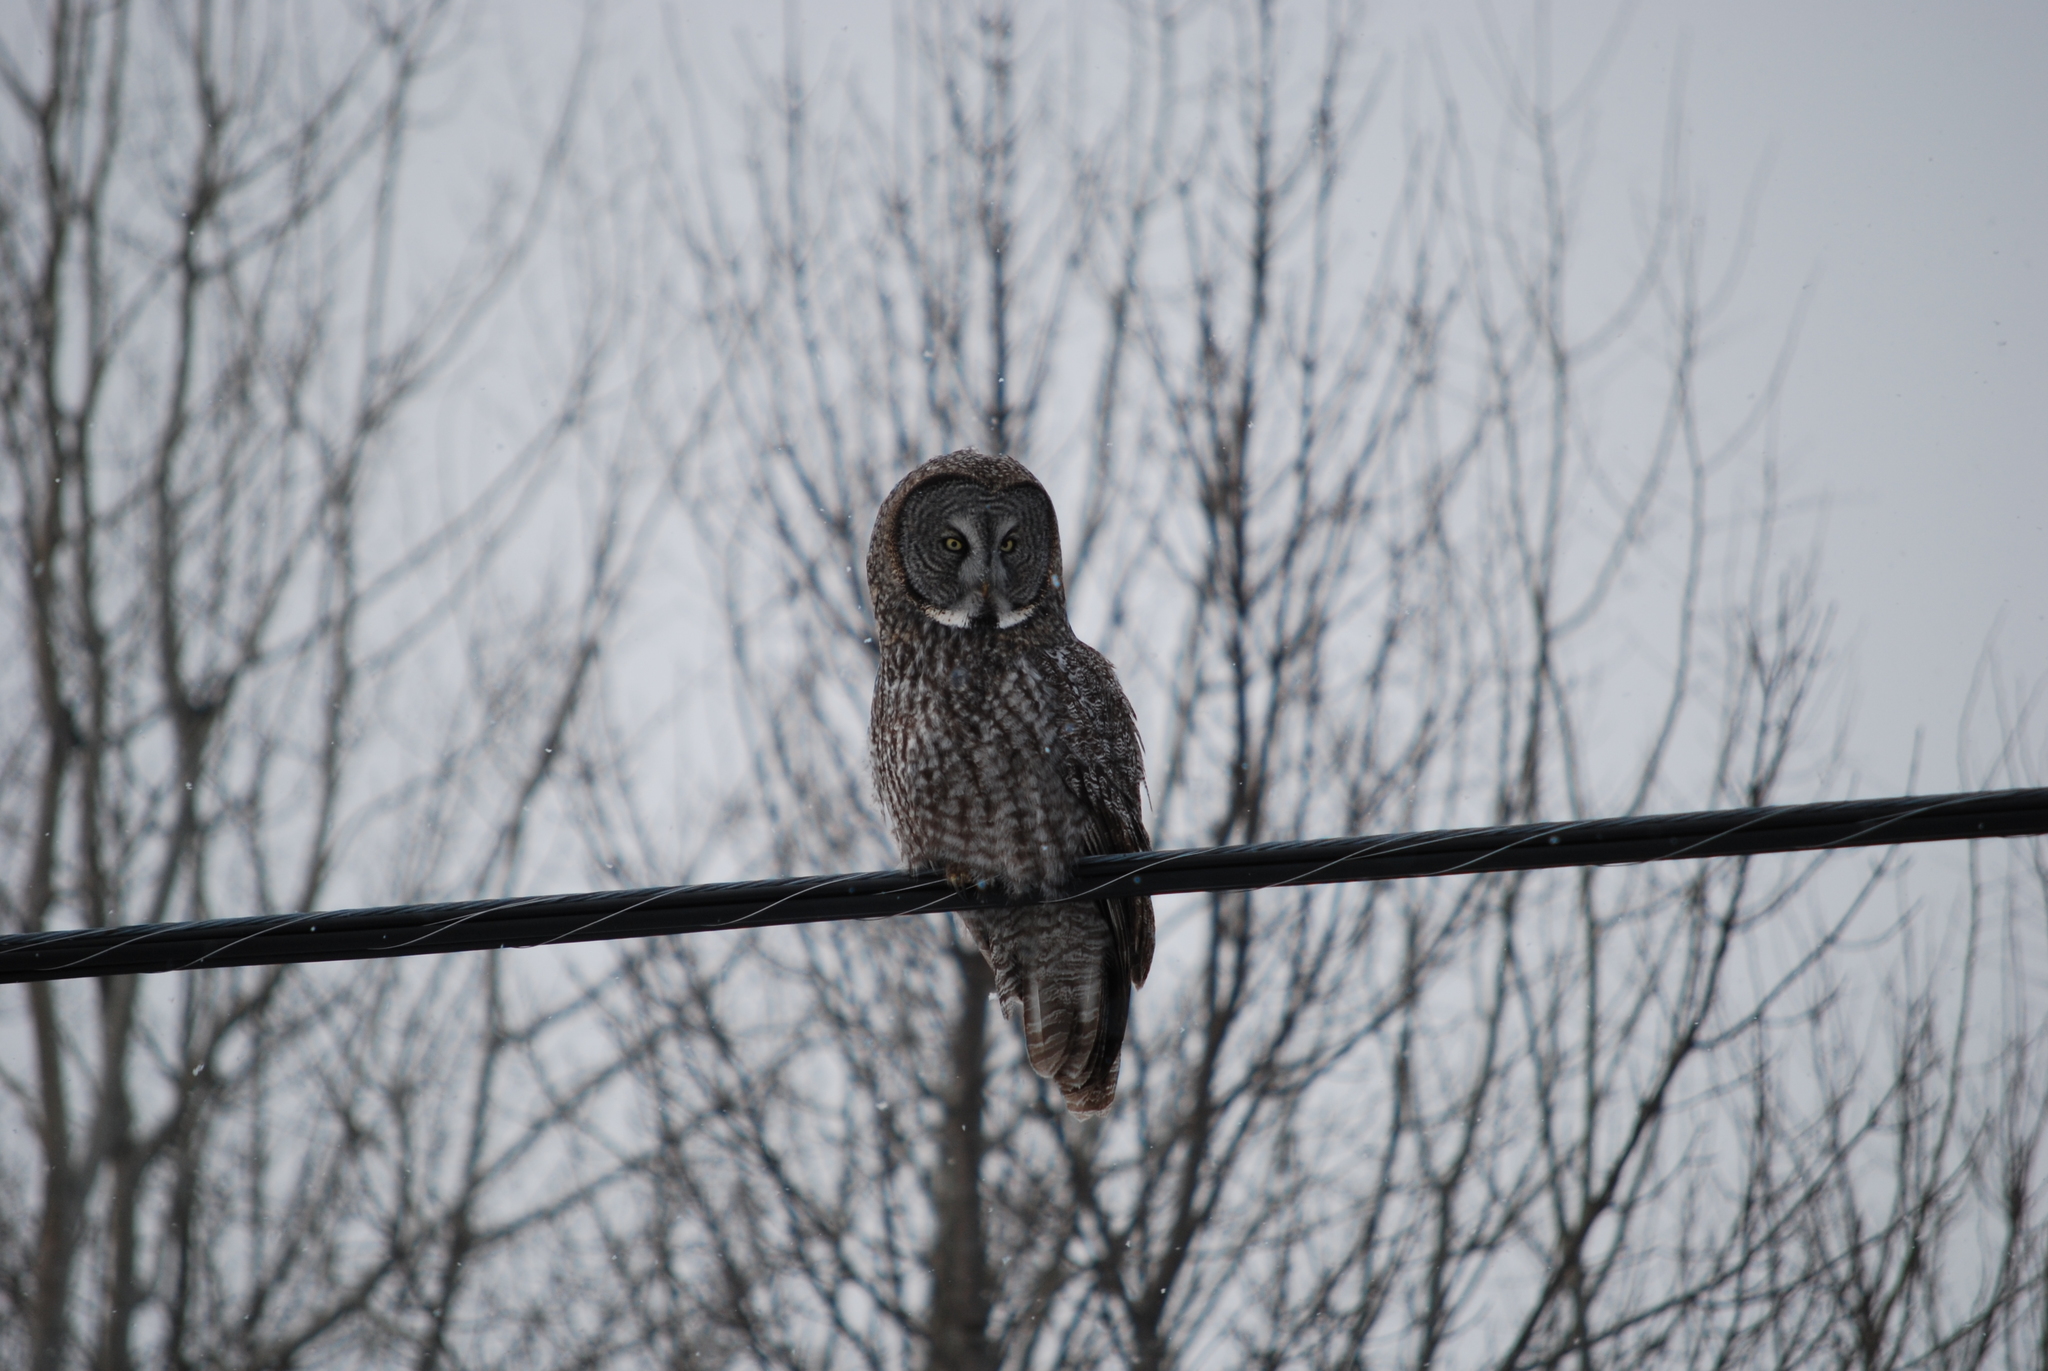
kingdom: Animalia
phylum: Chordata
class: Aves
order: Strigiformes
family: Strigidae
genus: Strix
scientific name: Strix nebulosa
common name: Great grey owl
